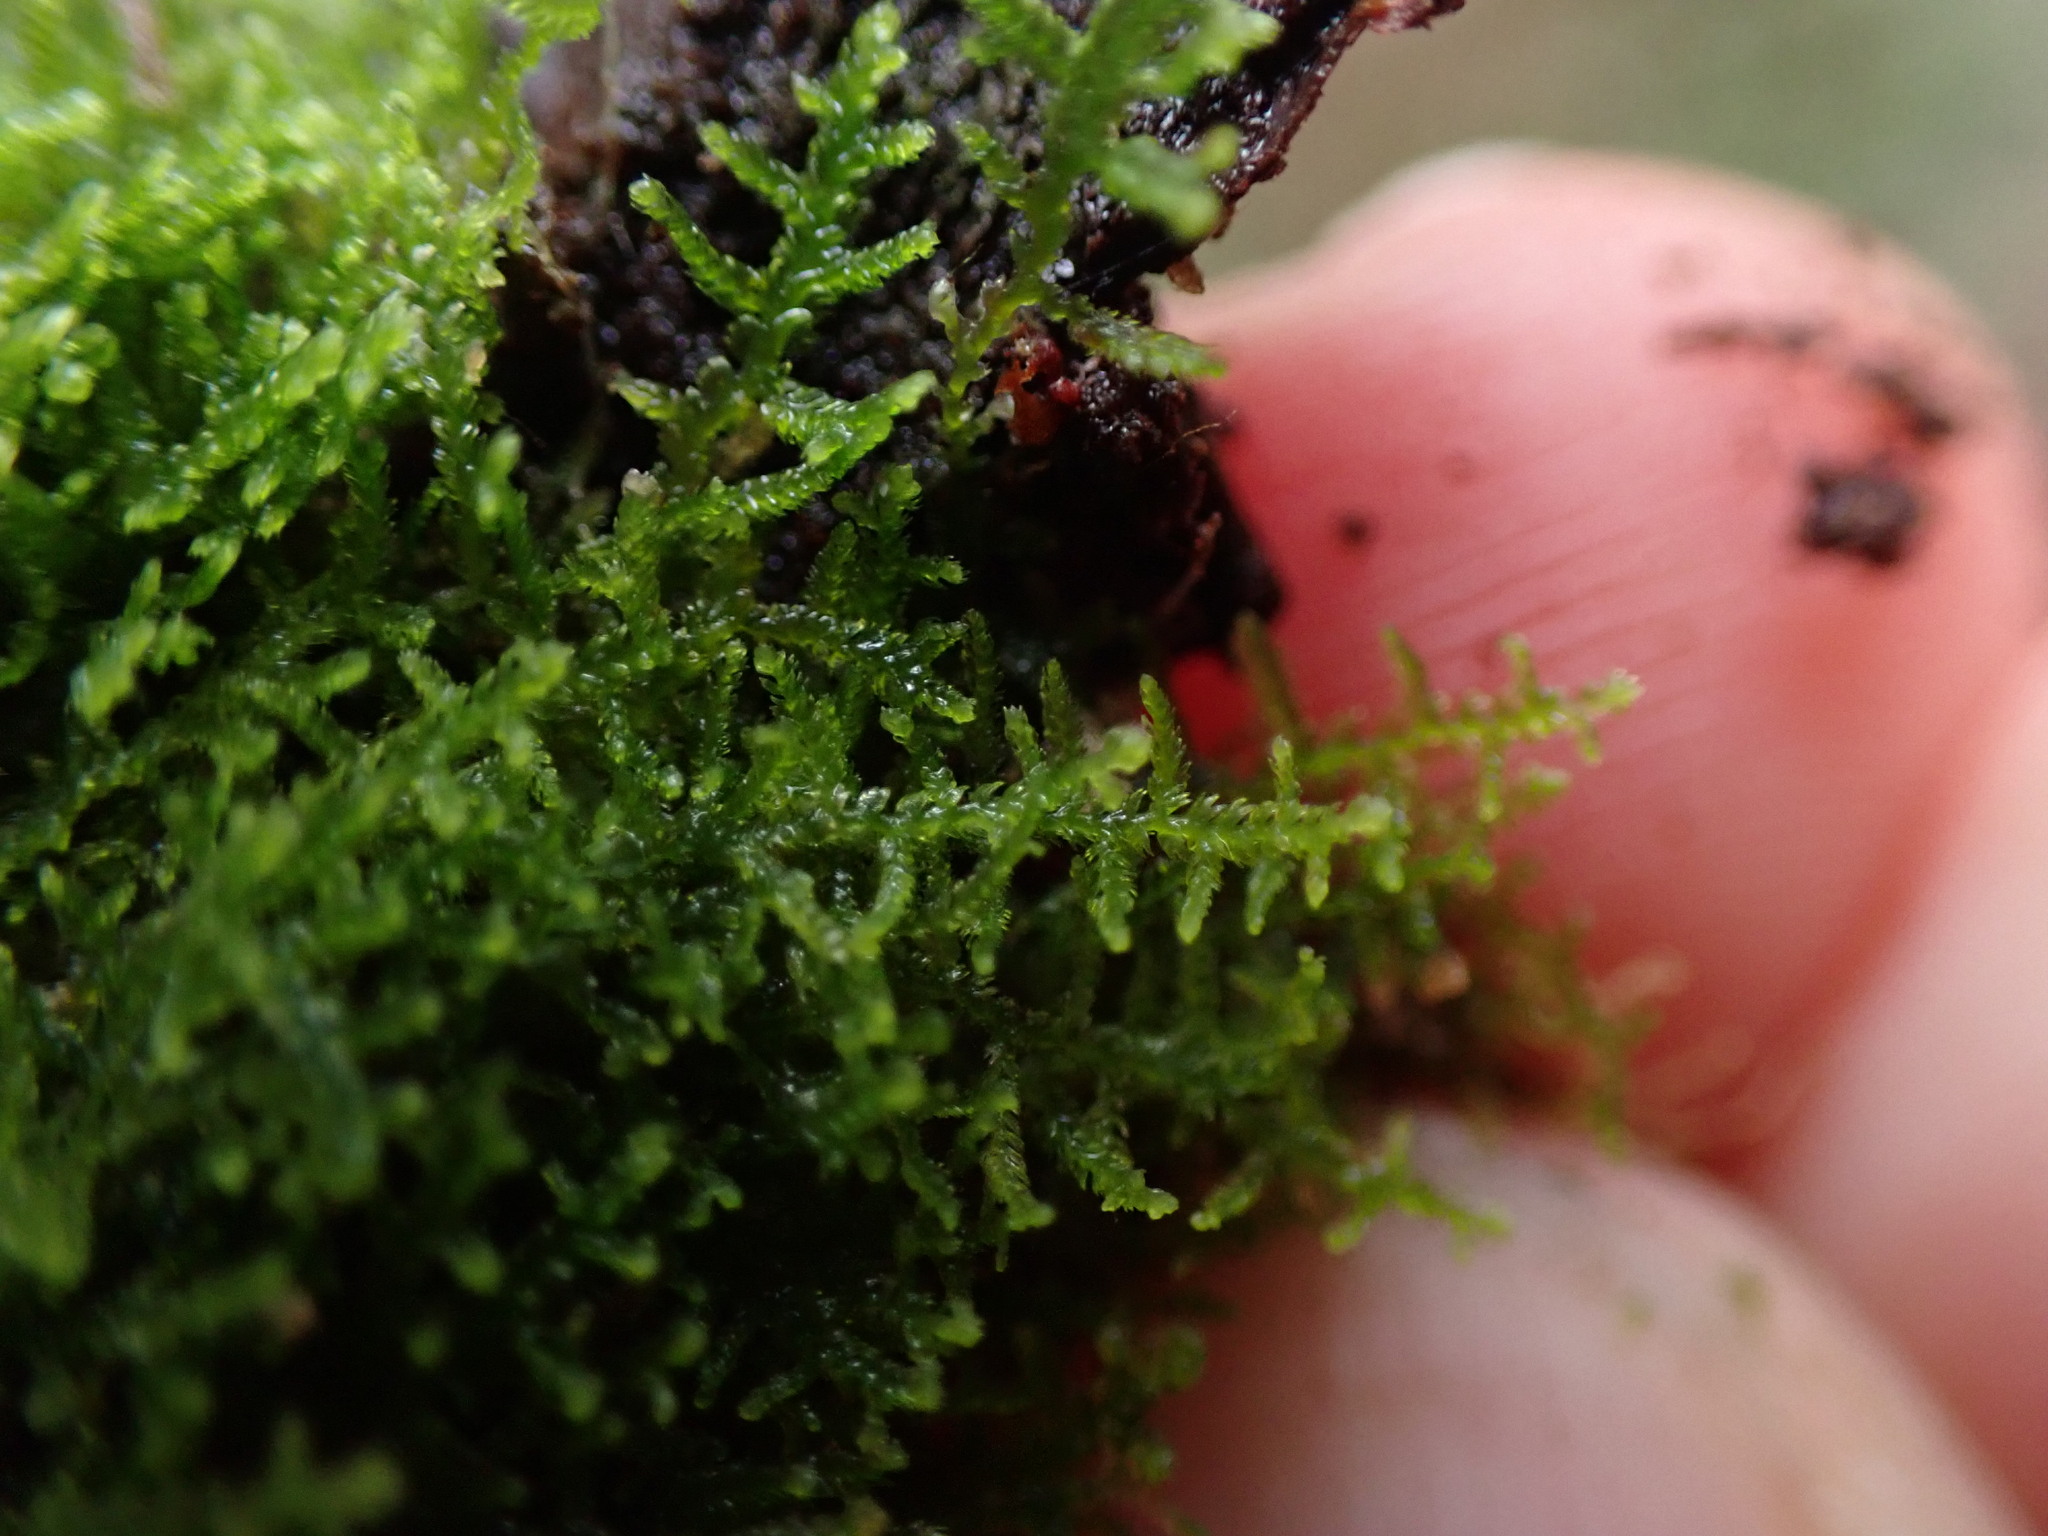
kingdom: Plantae
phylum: Marchantiophyta
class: Jungermanniopsida
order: Jungermanniales
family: Lepidoziaceae
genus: Lepidozia
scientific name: Lepidozia reptans
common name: Creeping fingerwort
